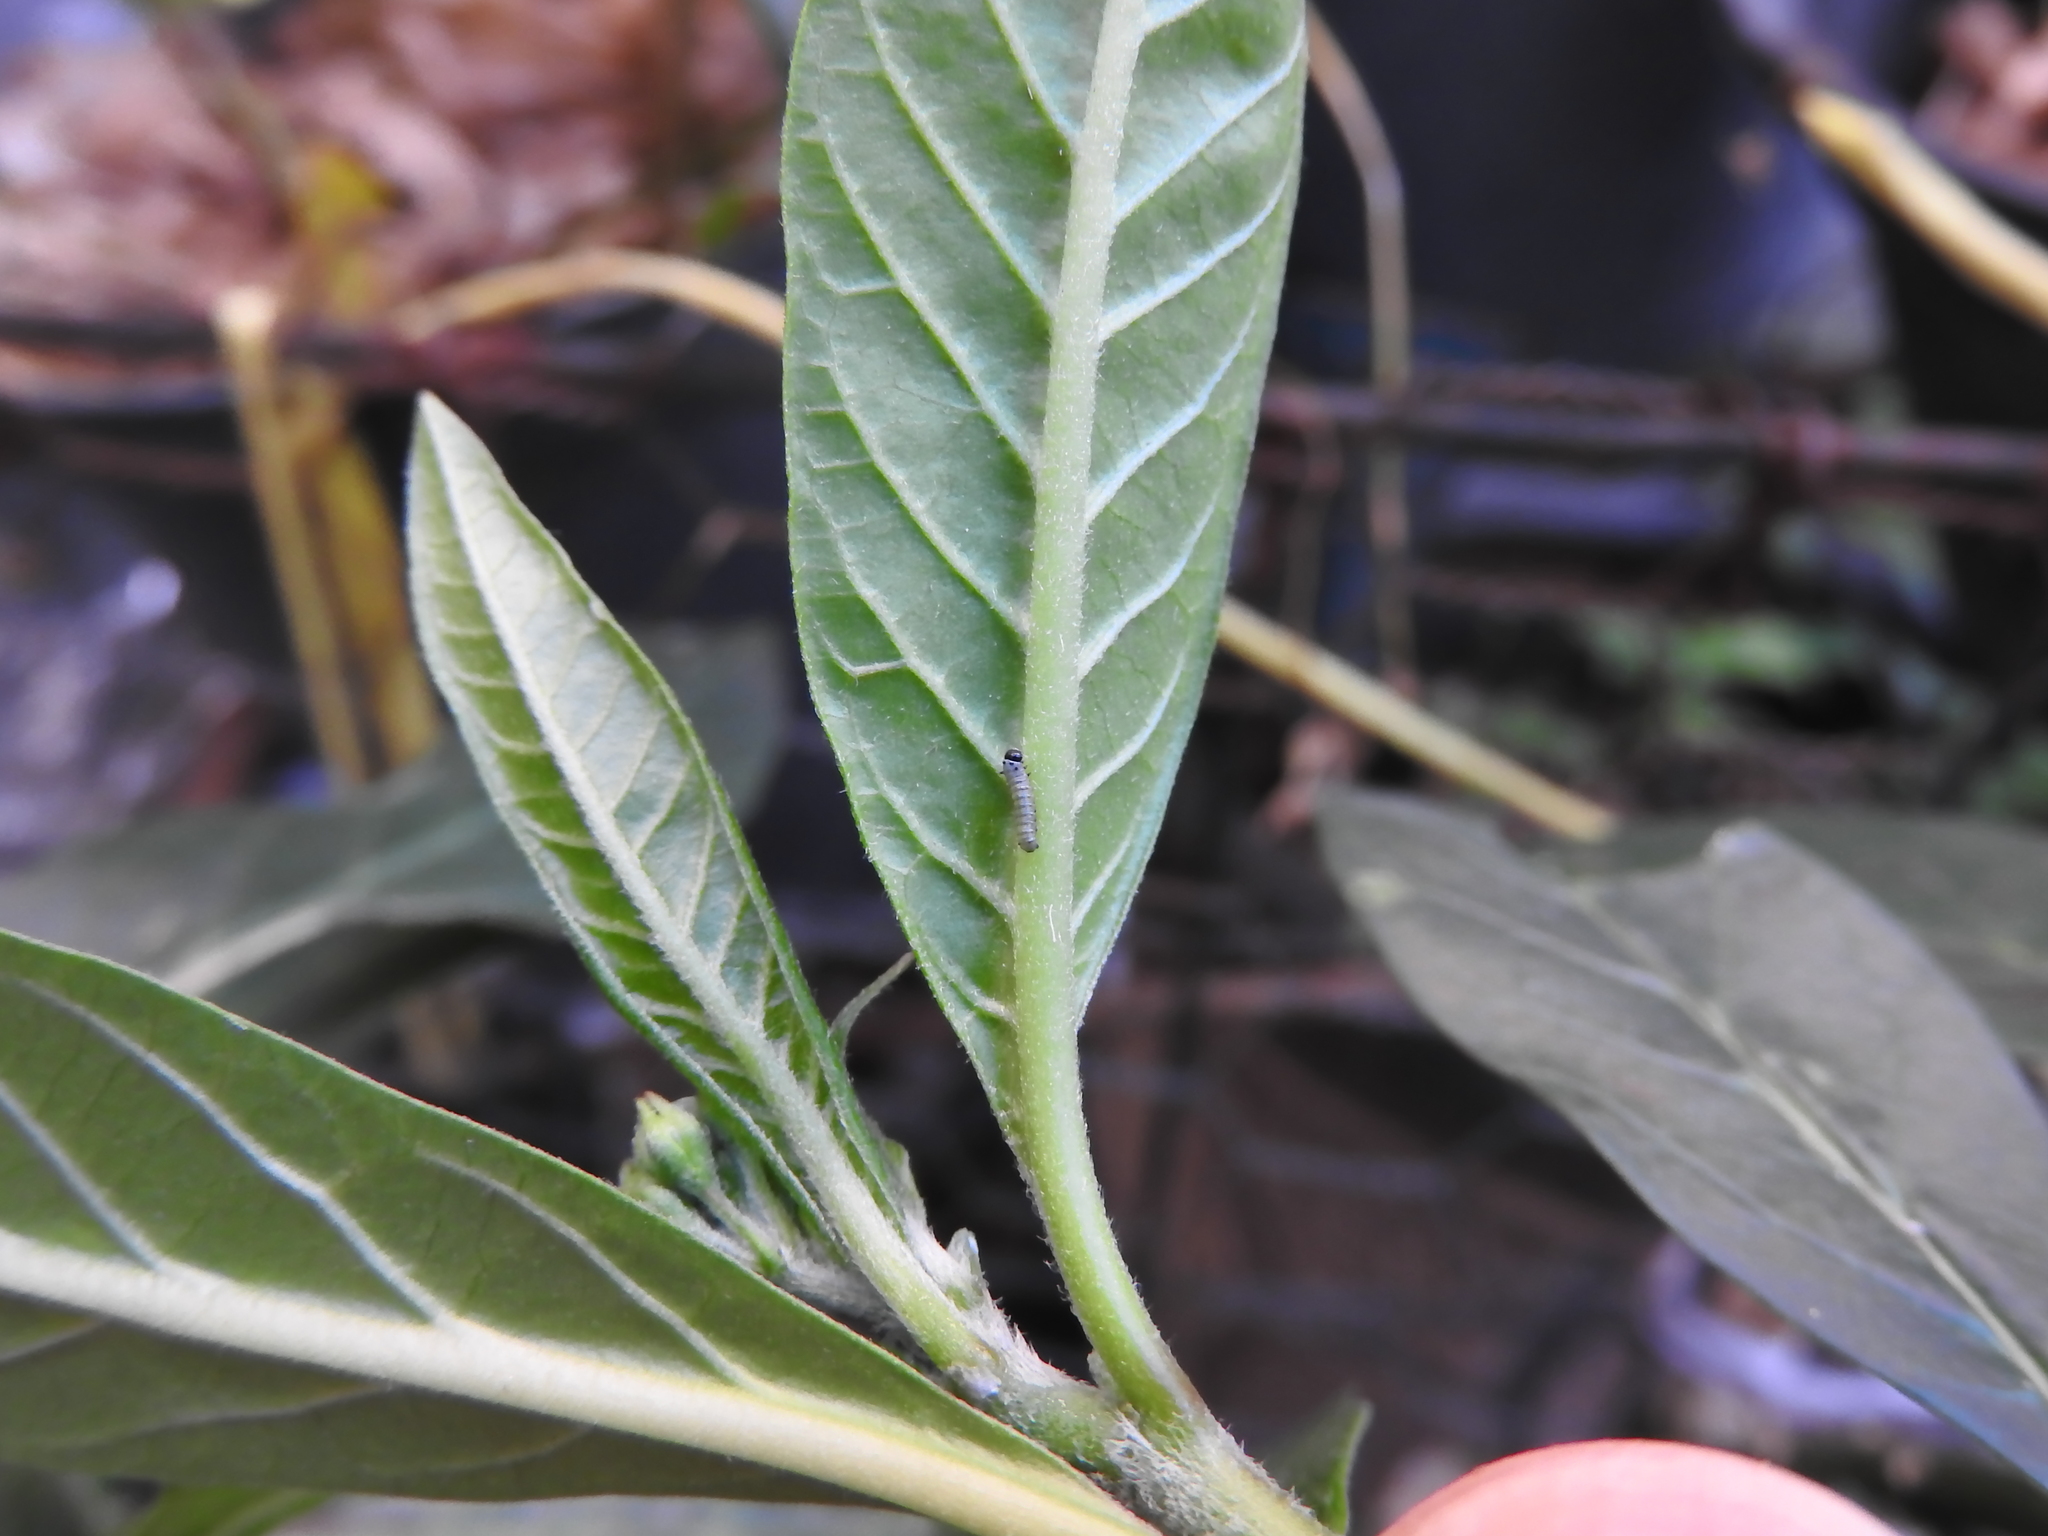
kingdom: Animalia
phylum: Arthropoda
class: Insecta
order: Lepidoptera
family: Nymphalidae
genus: Danaus
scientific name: Danaus plexippus
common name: Monarch
